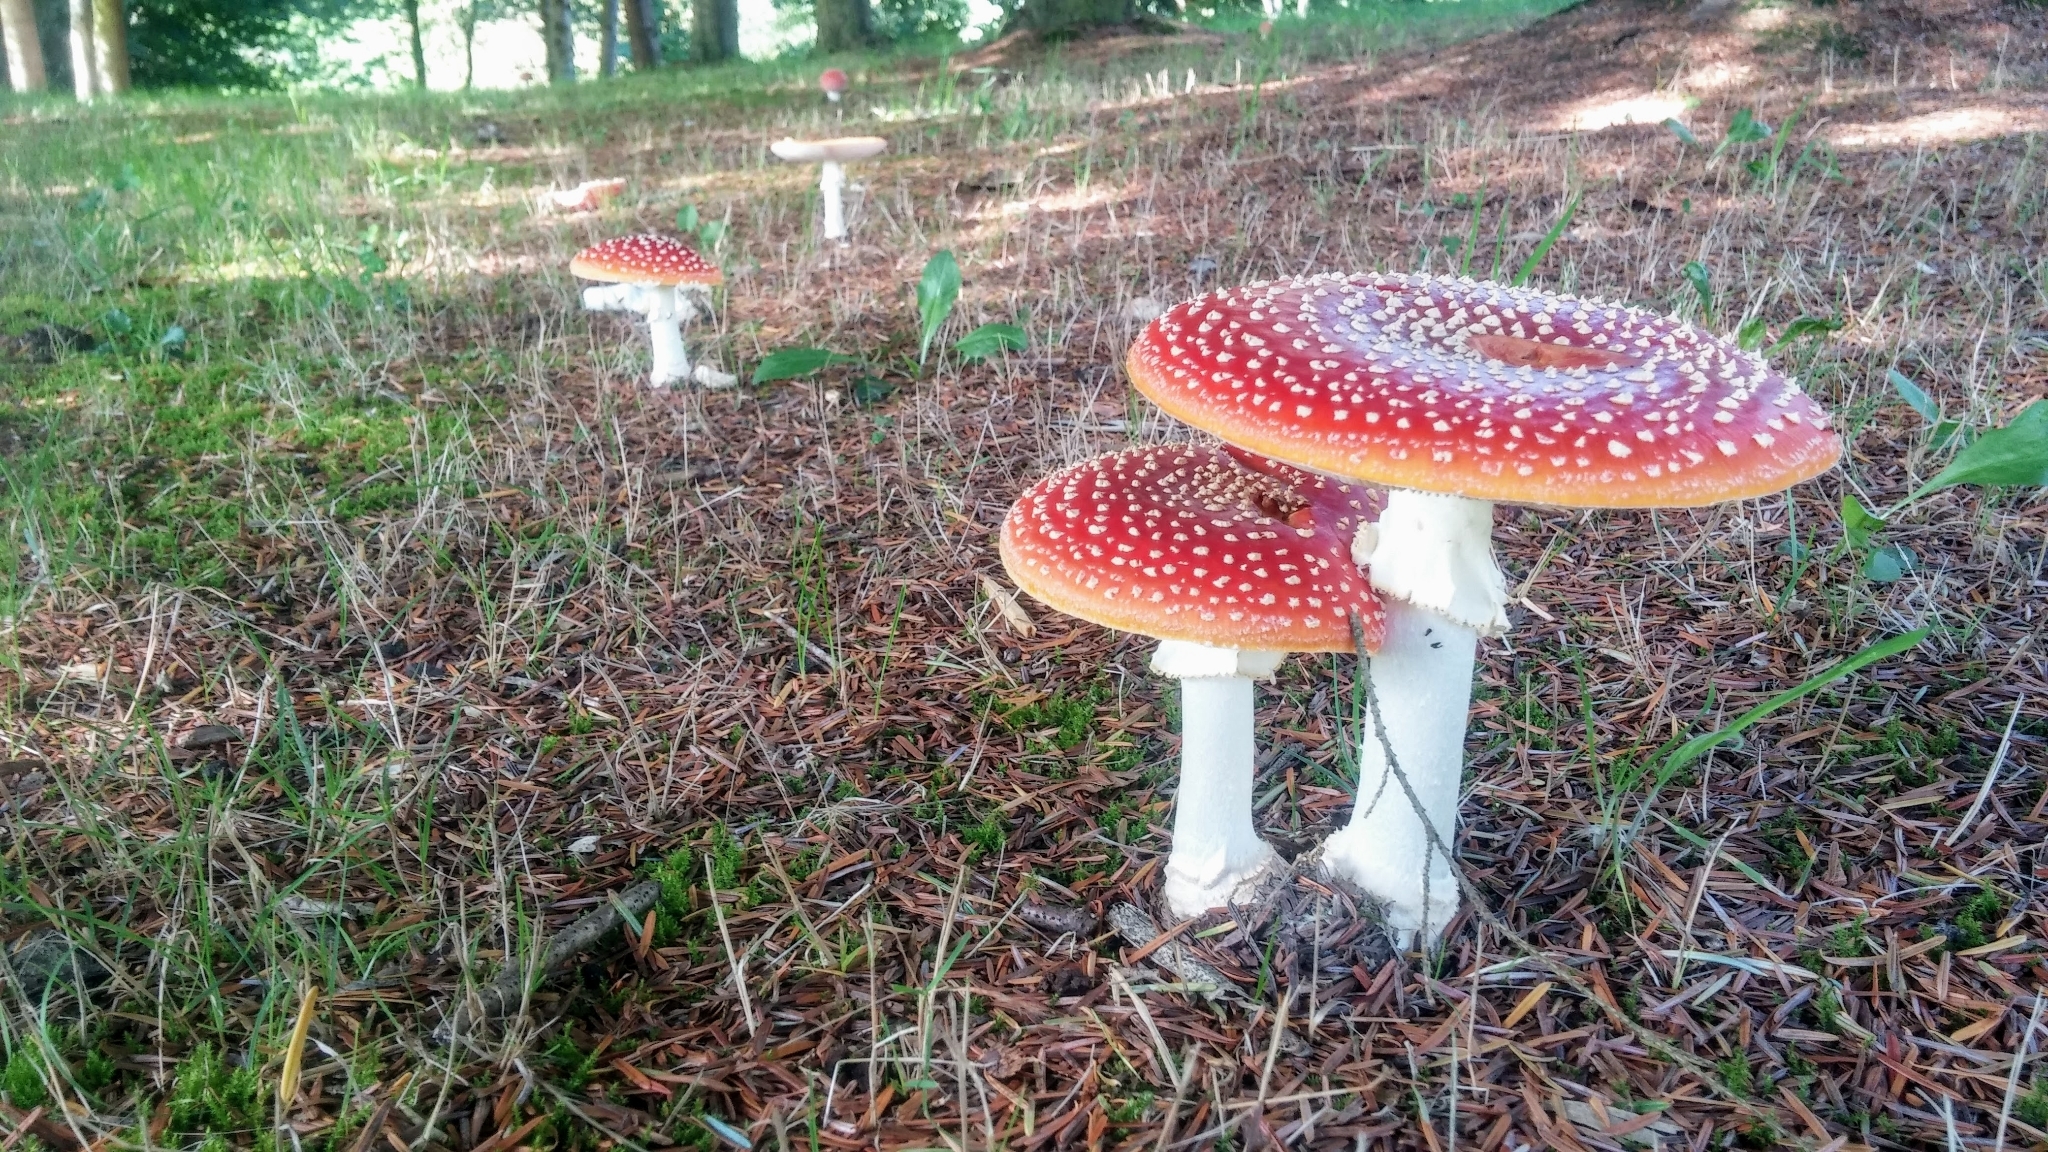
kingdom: Fungi
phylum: Basidiomycota
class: Agaricomycetes
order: Agaricales
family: Amanitaceae
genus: Amanita
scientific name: Amanita muscaria
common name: Fly agaric
